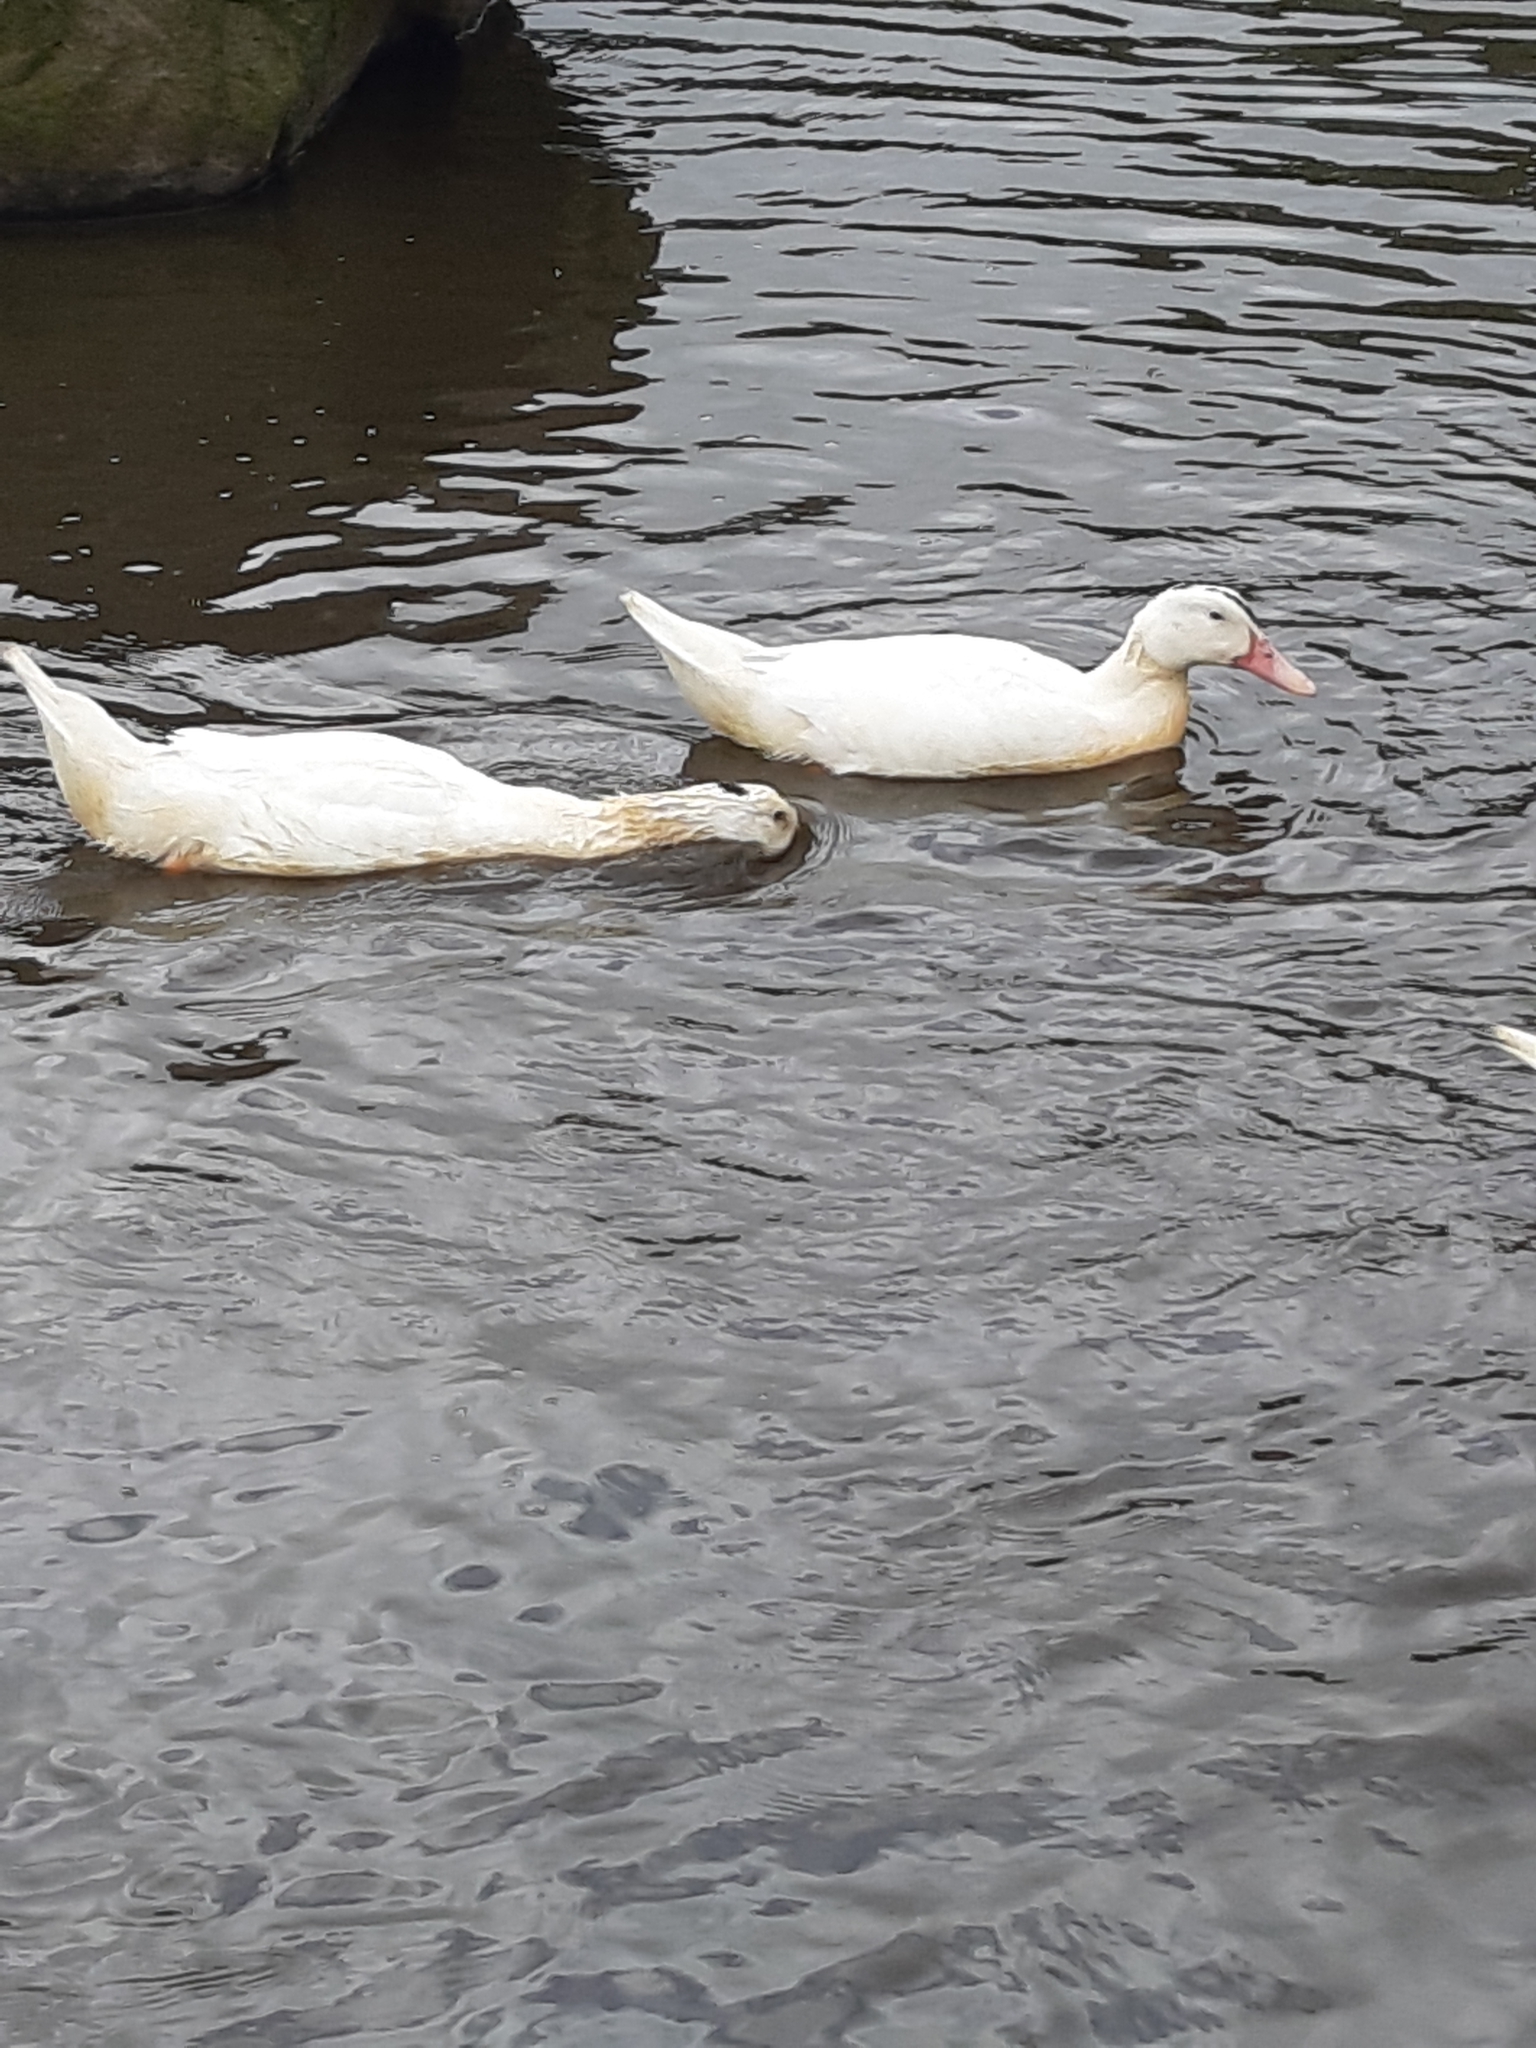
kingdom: Animalia
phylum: Chordata
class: Aves
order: Anseriformes
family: Anatidae
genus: Anas
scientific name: Anas platyrhynchos
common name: Mallard
